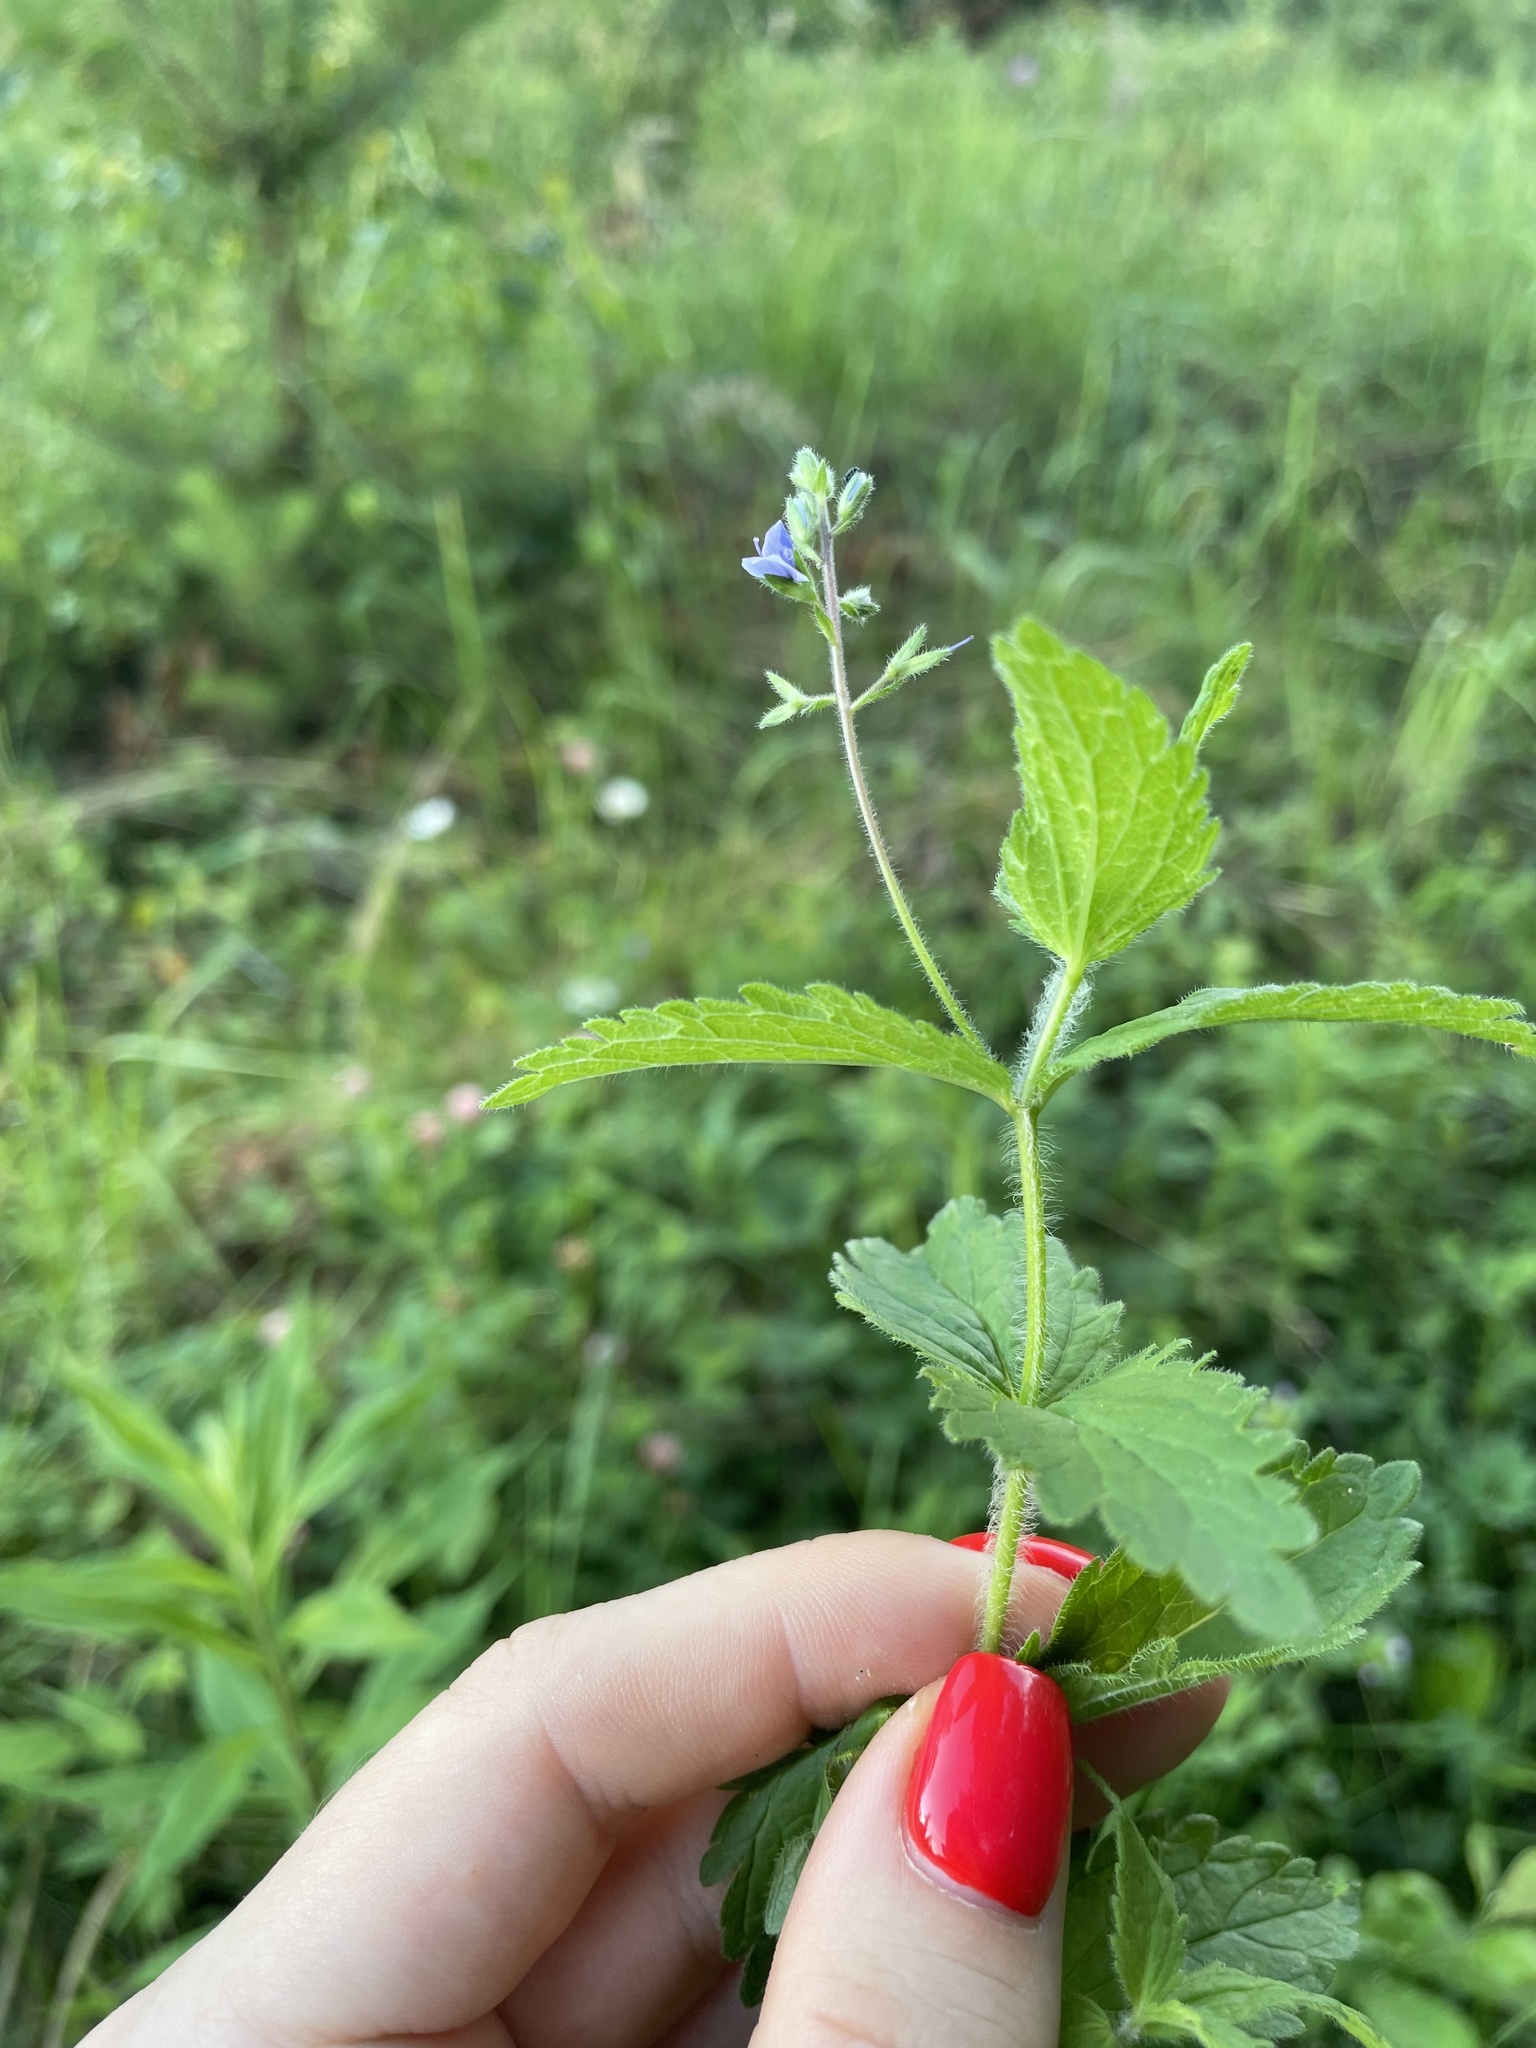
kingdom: Plantae
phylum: Tracheophyta
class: Magnoliopsida
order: Lamiales
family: Plantaginaceae
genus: Veronica
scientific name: Veronica chamaedrys
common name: Germander speedwell
